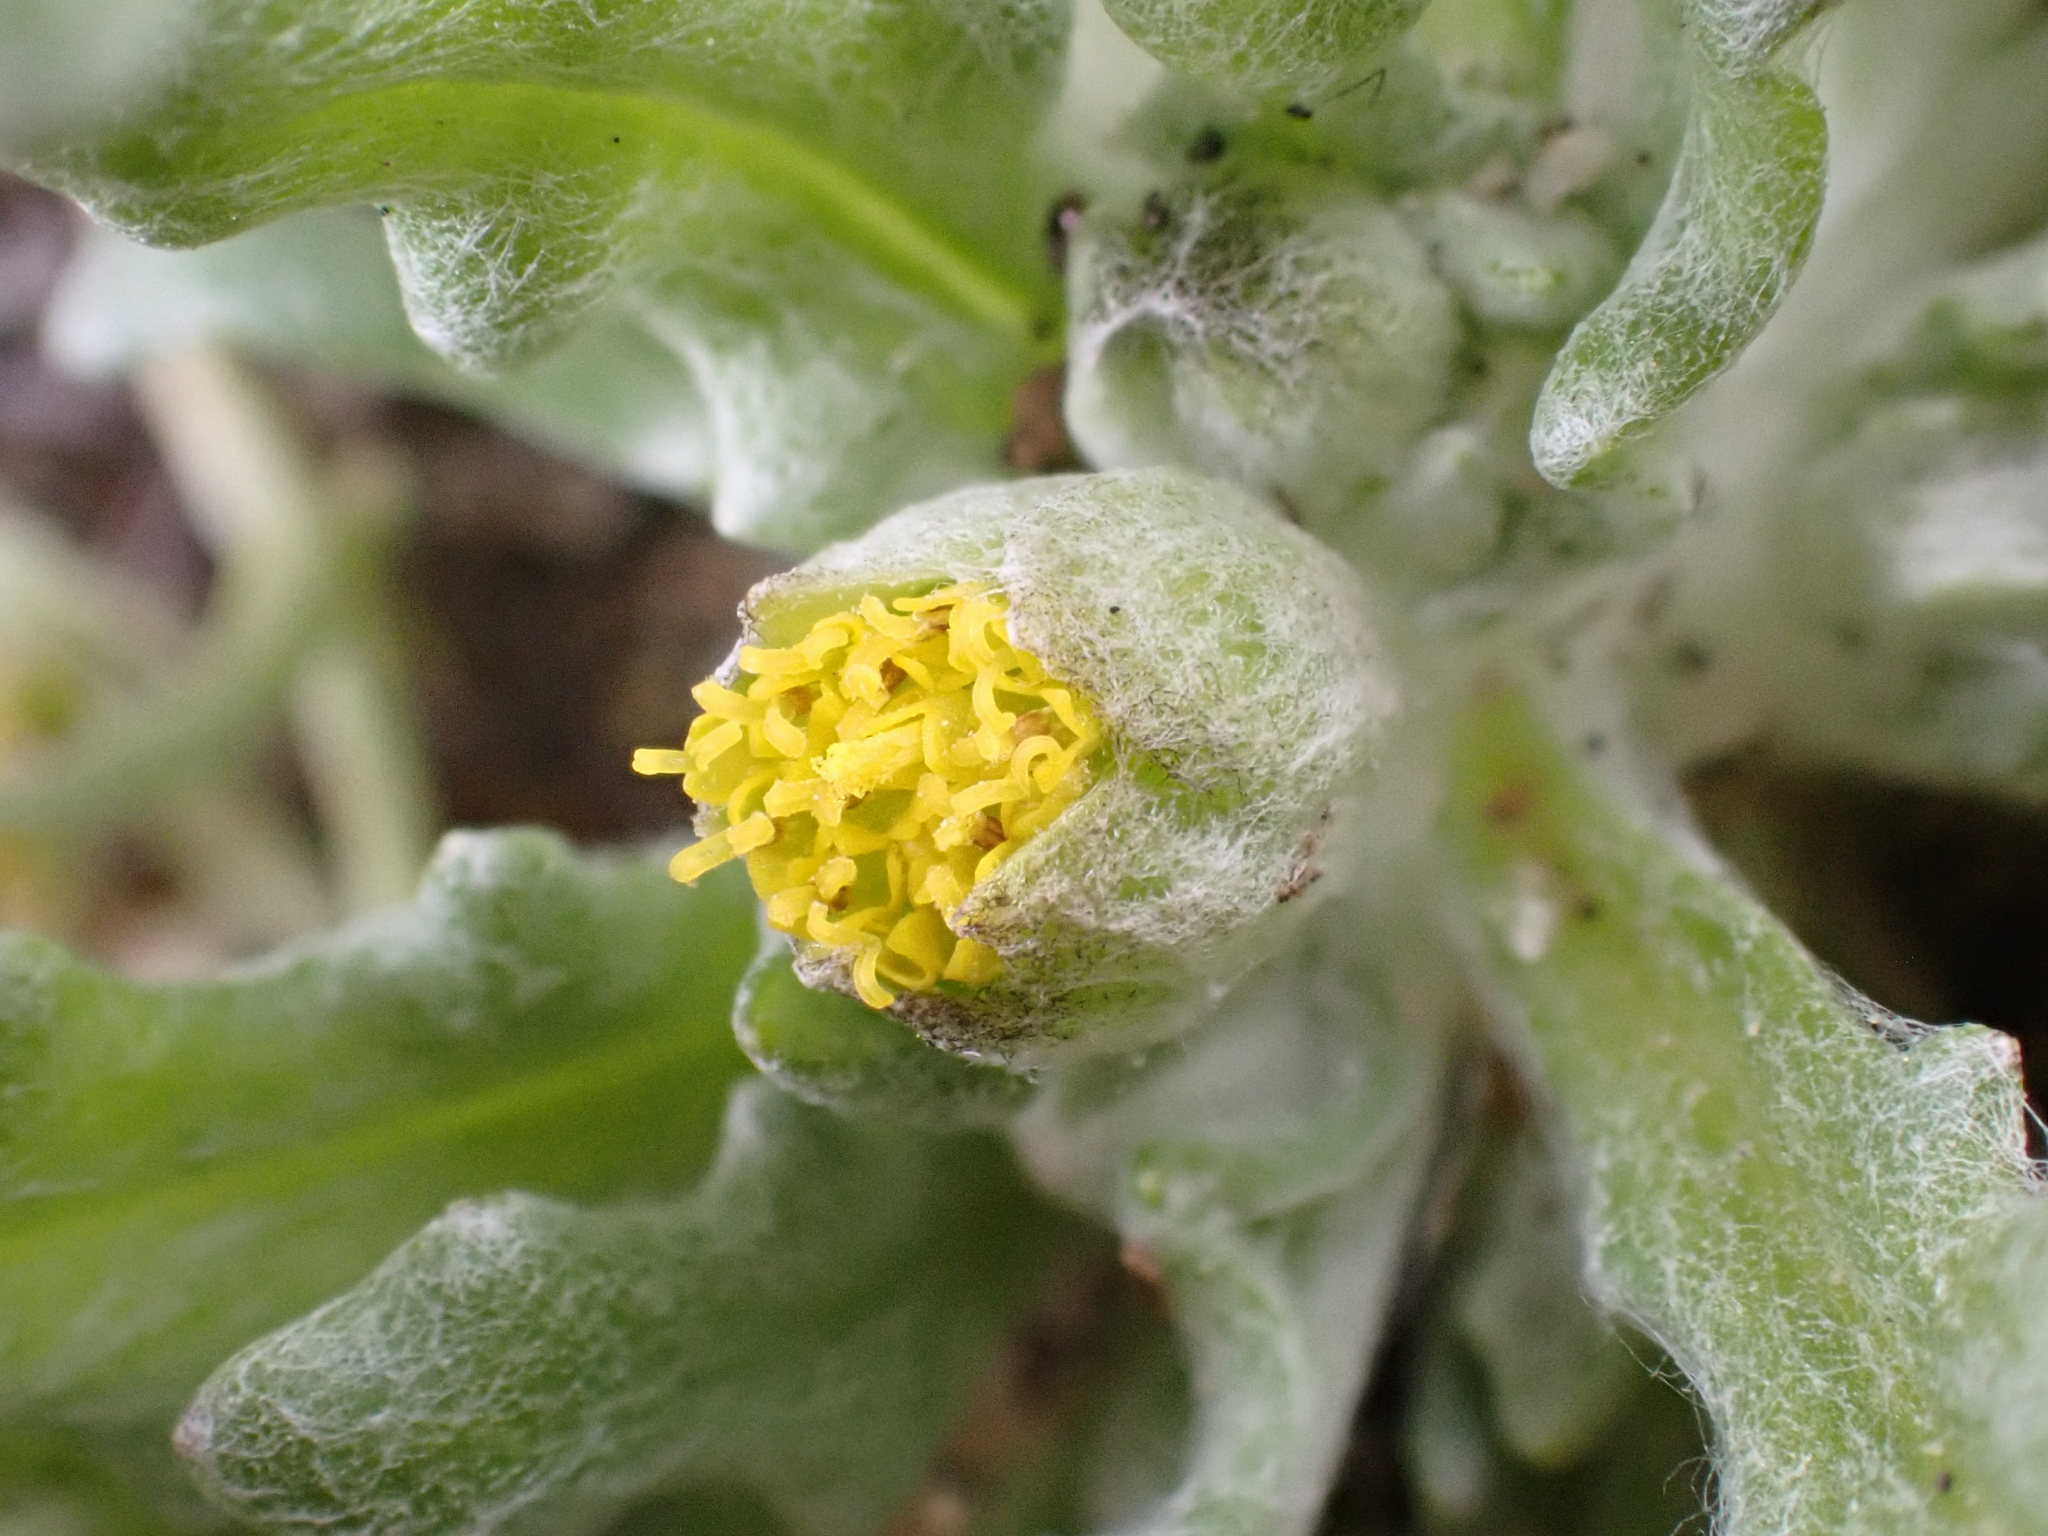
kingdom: Plantae
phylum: Tracheophyta
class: Magnoliopsida
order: Asterales
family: Asteraceae
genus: Monolopia
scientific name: Monolopia congdonii
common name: San joaquin woolly-threads
